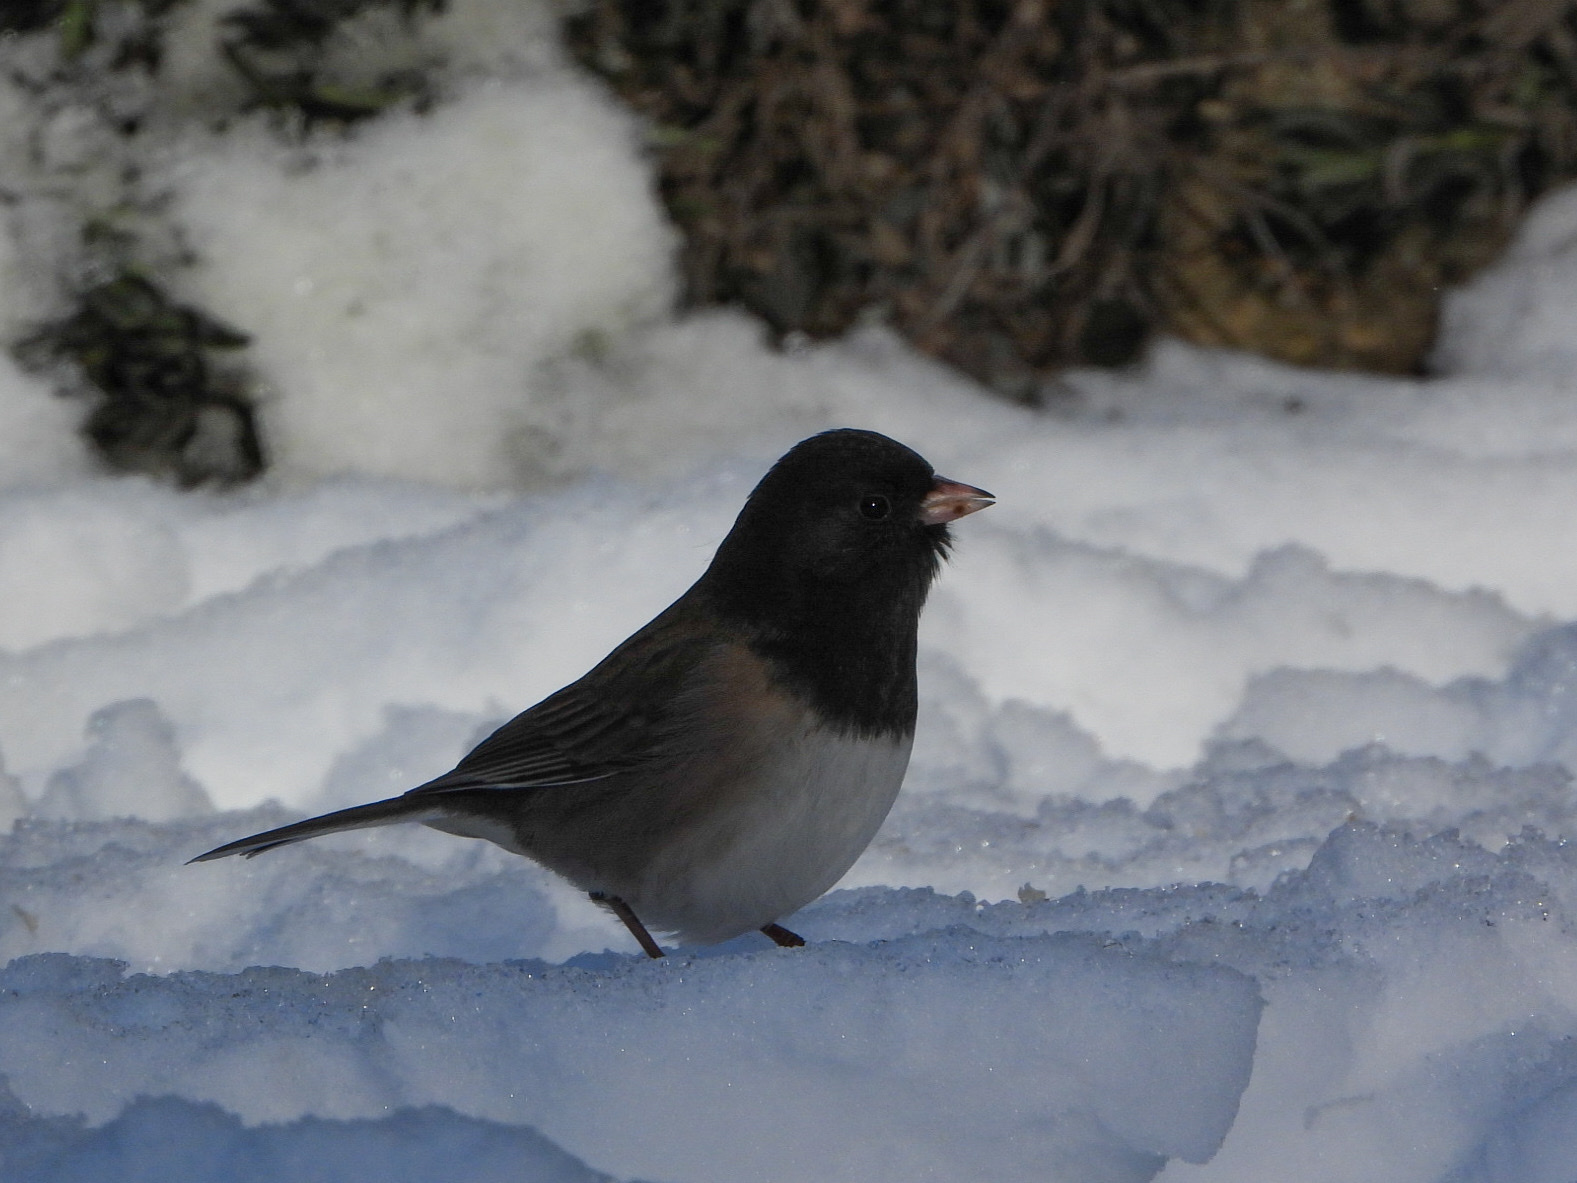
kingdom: Animalia
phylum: Chordata
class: Aves
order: Passeriformes
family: Passerellidae
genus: Junco
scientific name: Junco hyemalis
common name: Dark-eyed junco
